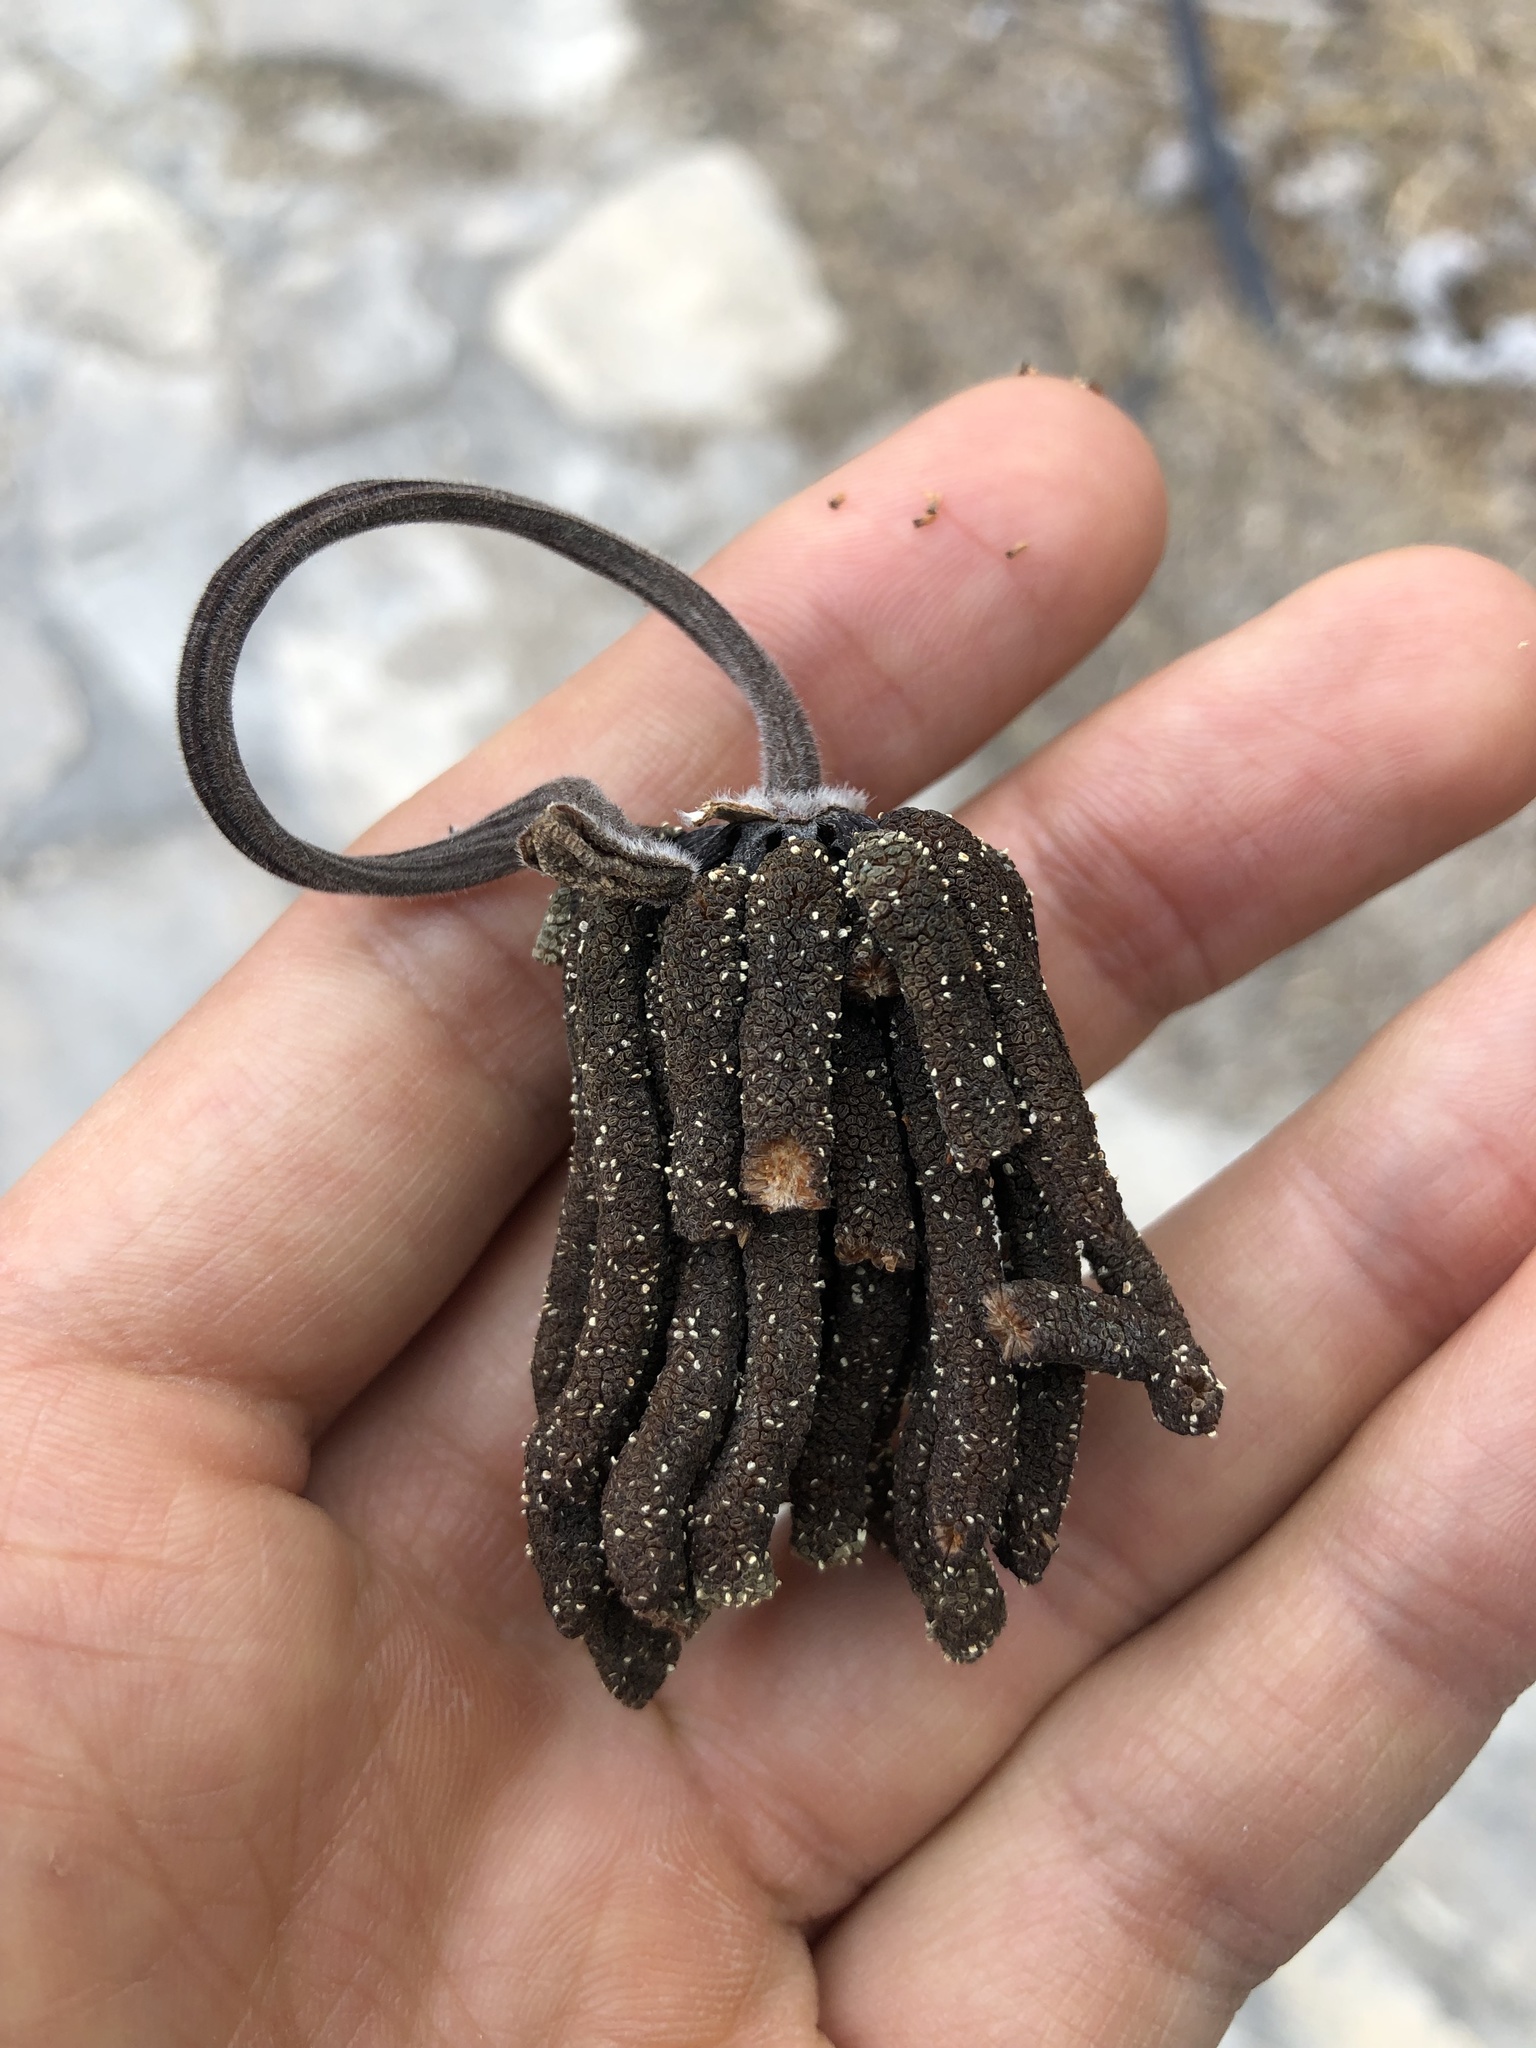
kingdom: Plantae
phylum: Tracheophyta
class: Magnoliopsida
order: Rosales
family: Urticaceae
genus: Cecropia
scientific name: Cecropia peltata
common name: Trumpet-tree
